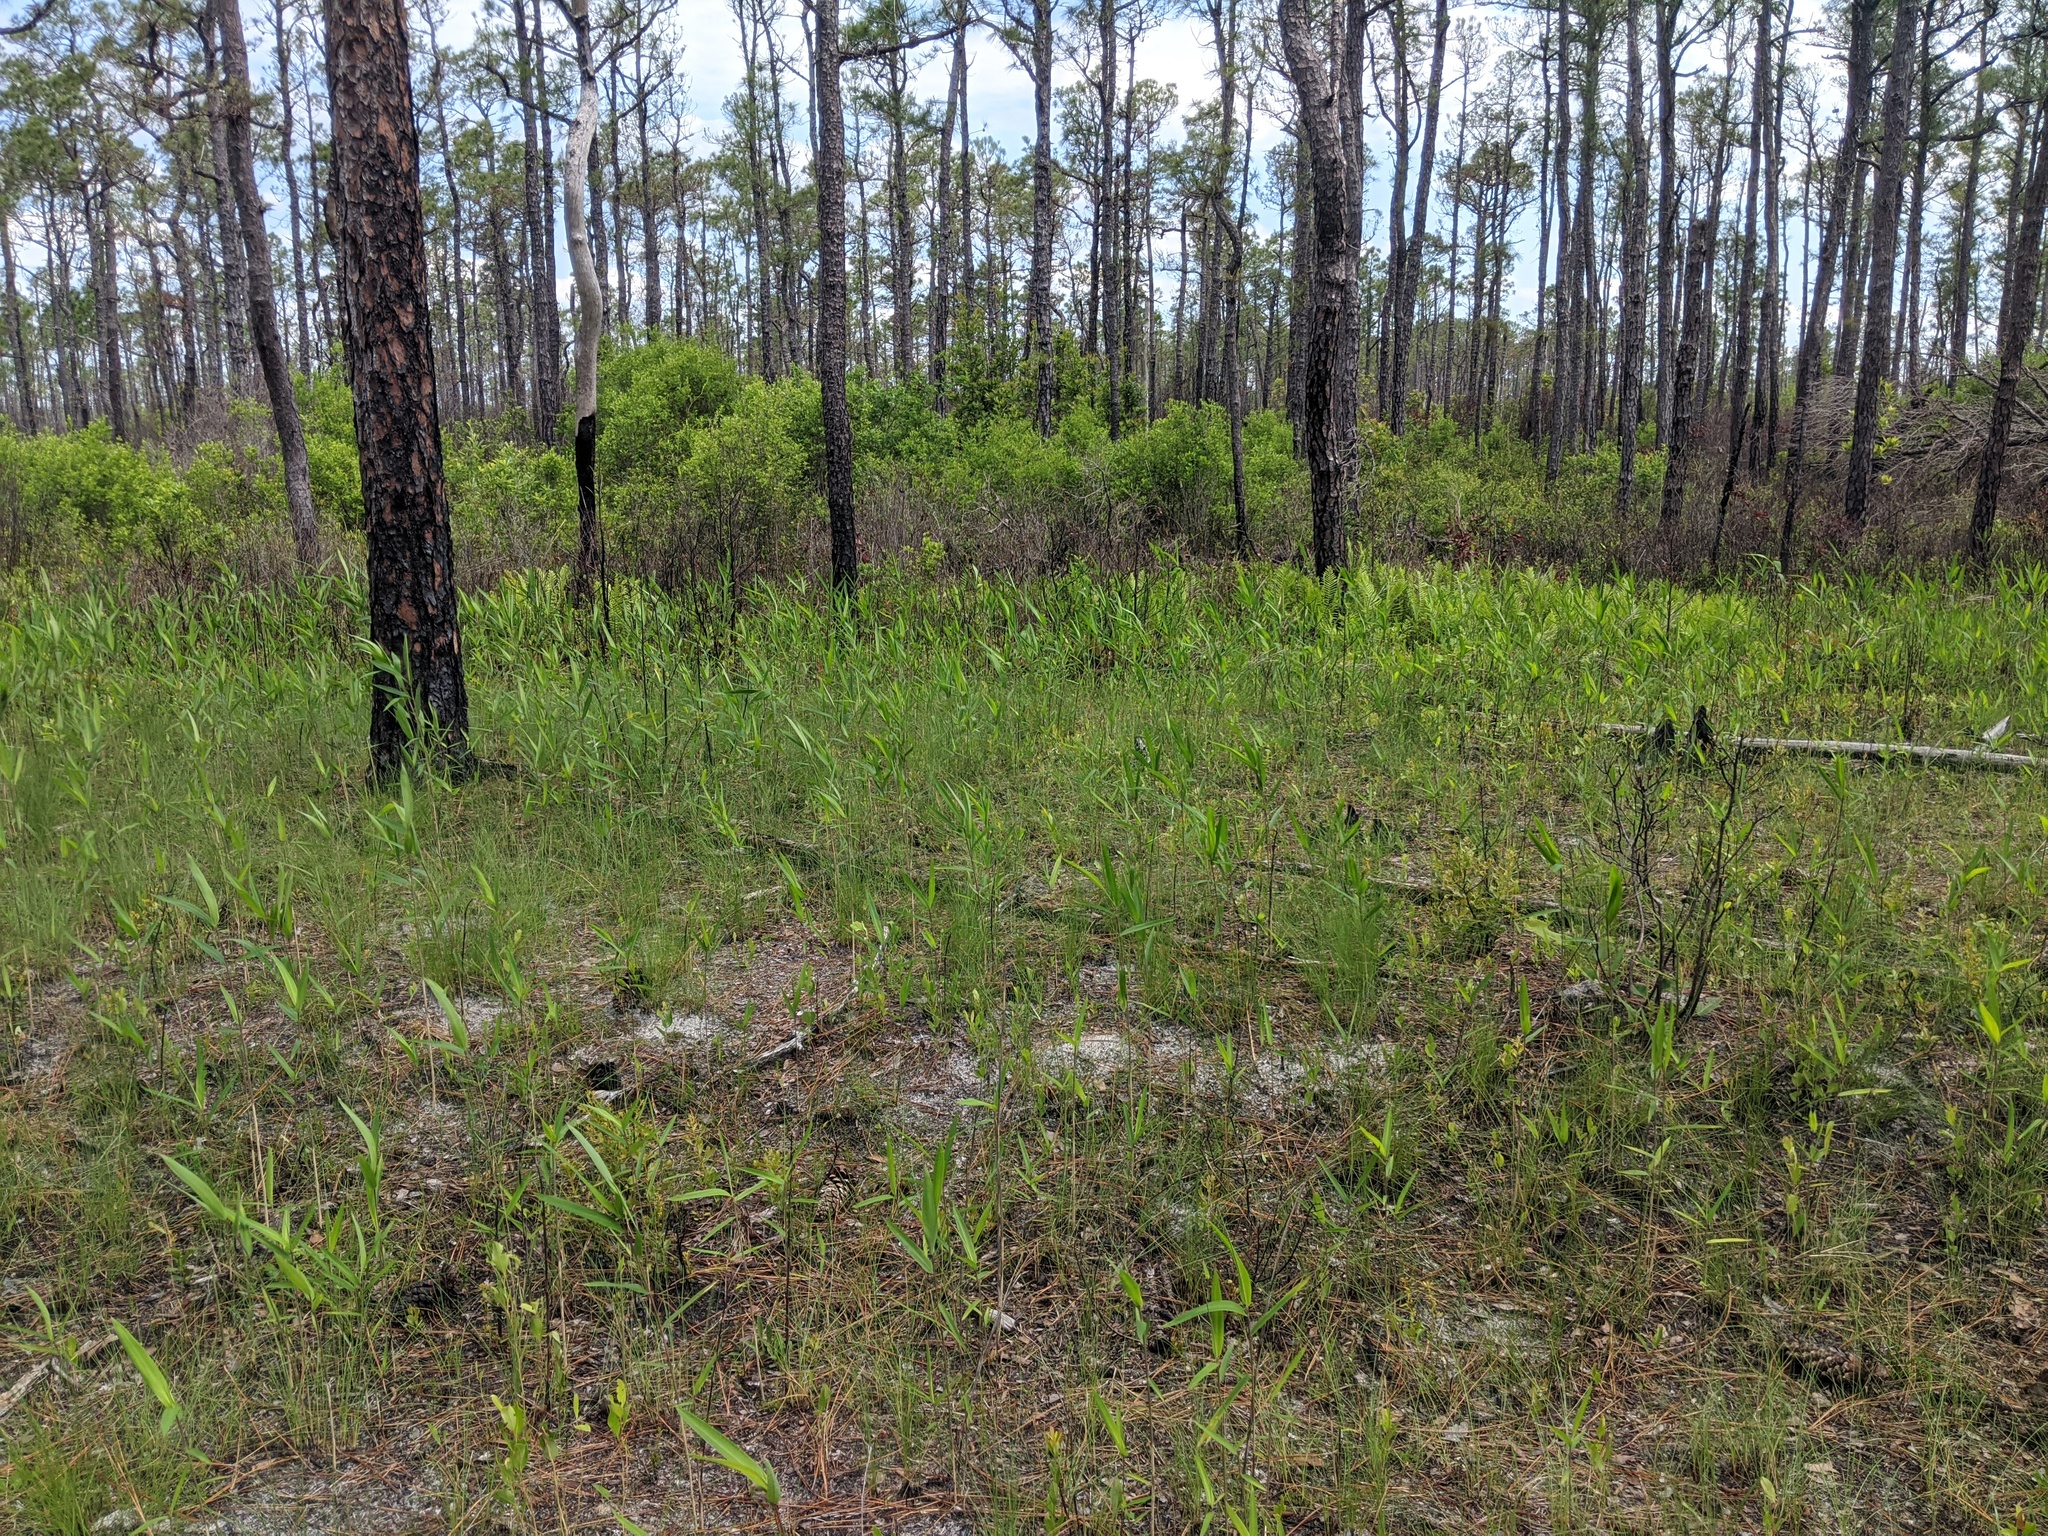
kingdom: Plantae
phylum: Tracheophyta
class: Liliopsida
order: Poales
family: Poaceae
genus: Arundinaria
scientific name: Arundinaria tecta
